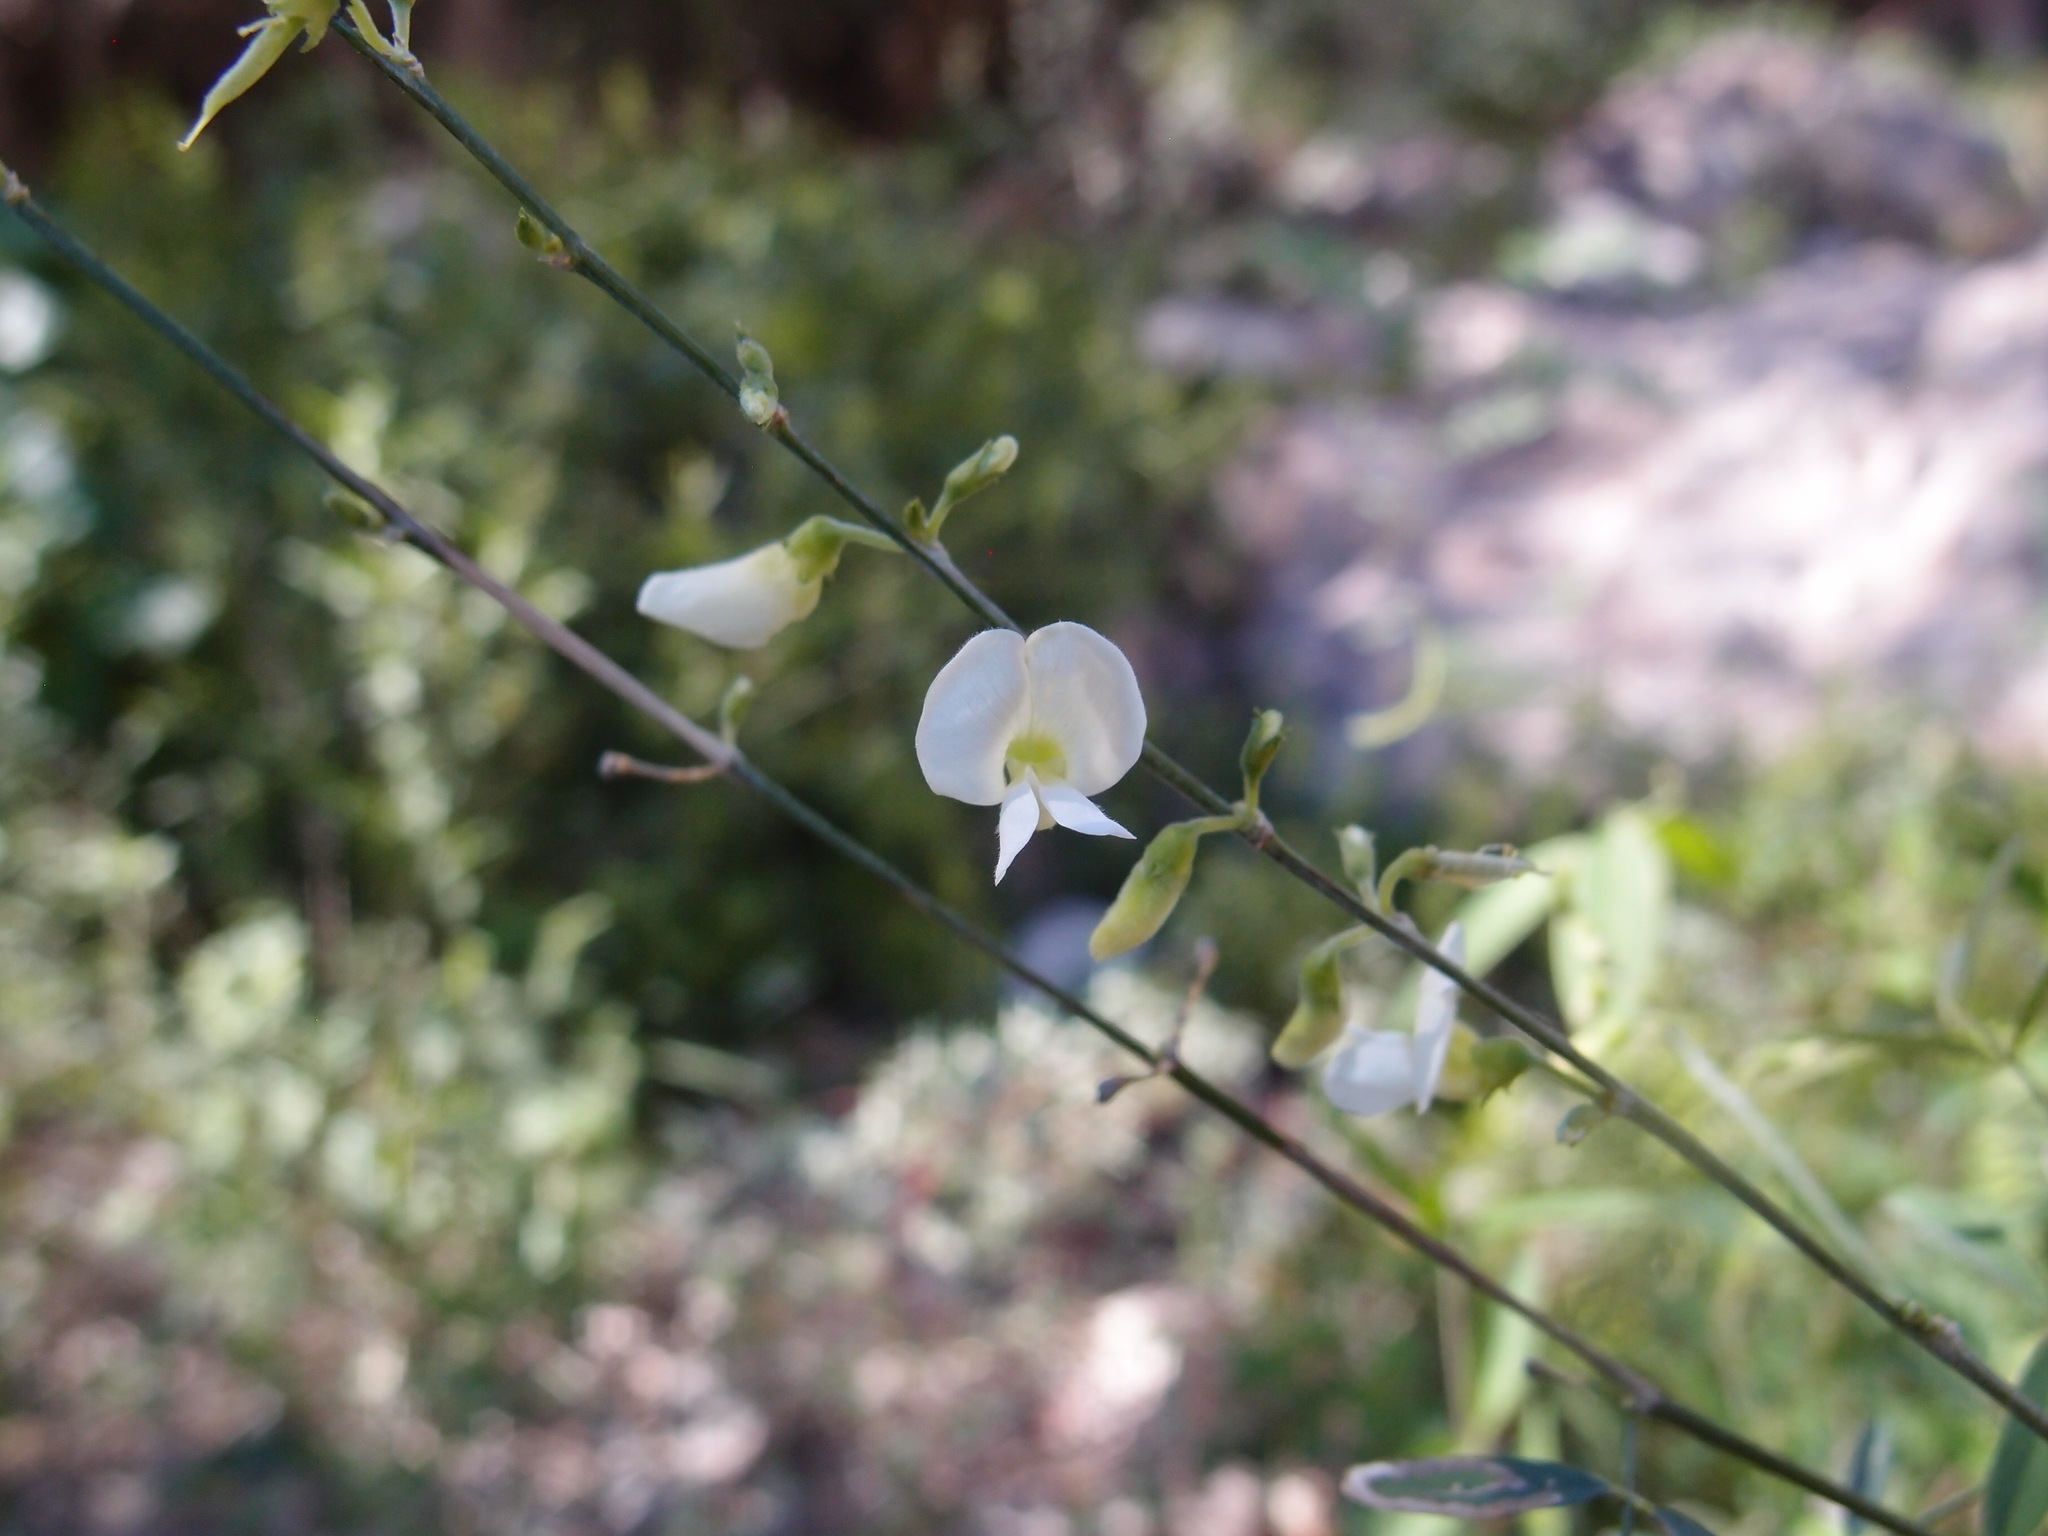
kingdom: Plantae
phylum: Tracheophyta
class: Magnoliopsida
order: Fabales
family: Fabaceae
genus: Tephrosia
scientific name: Tephrosia vicioides
